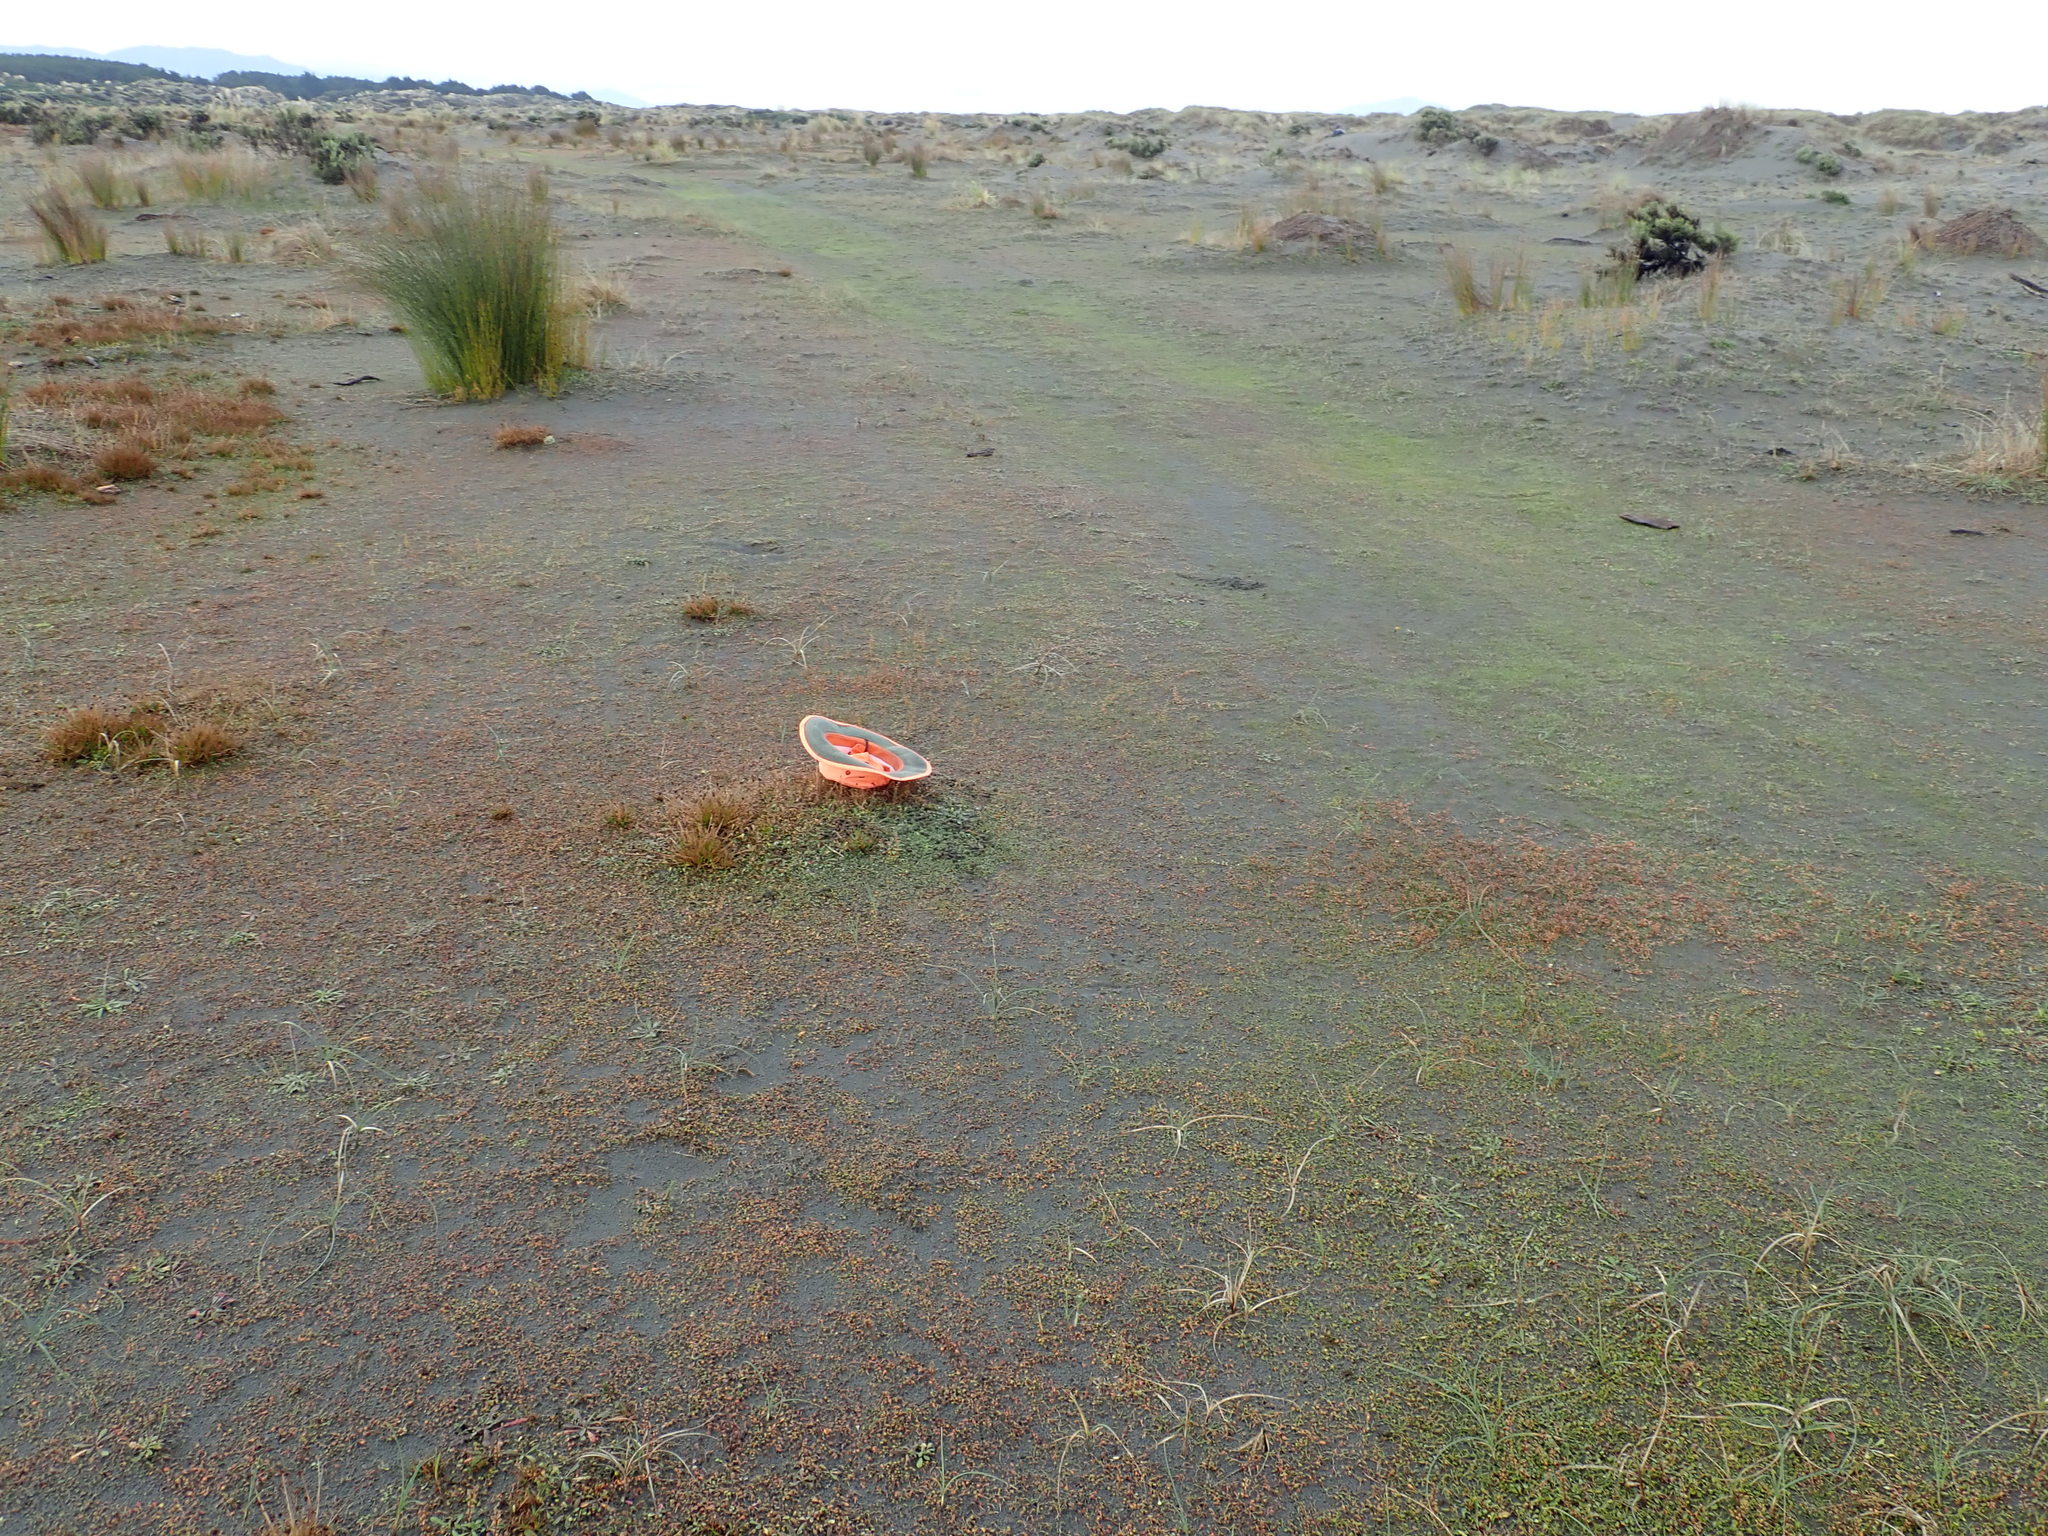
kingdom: Plantae
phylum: Tracheophyta
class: Magnoliopsida
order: Asterales
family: Goodeniaceae
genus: Goodenia
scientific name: Goodenia heenanii
